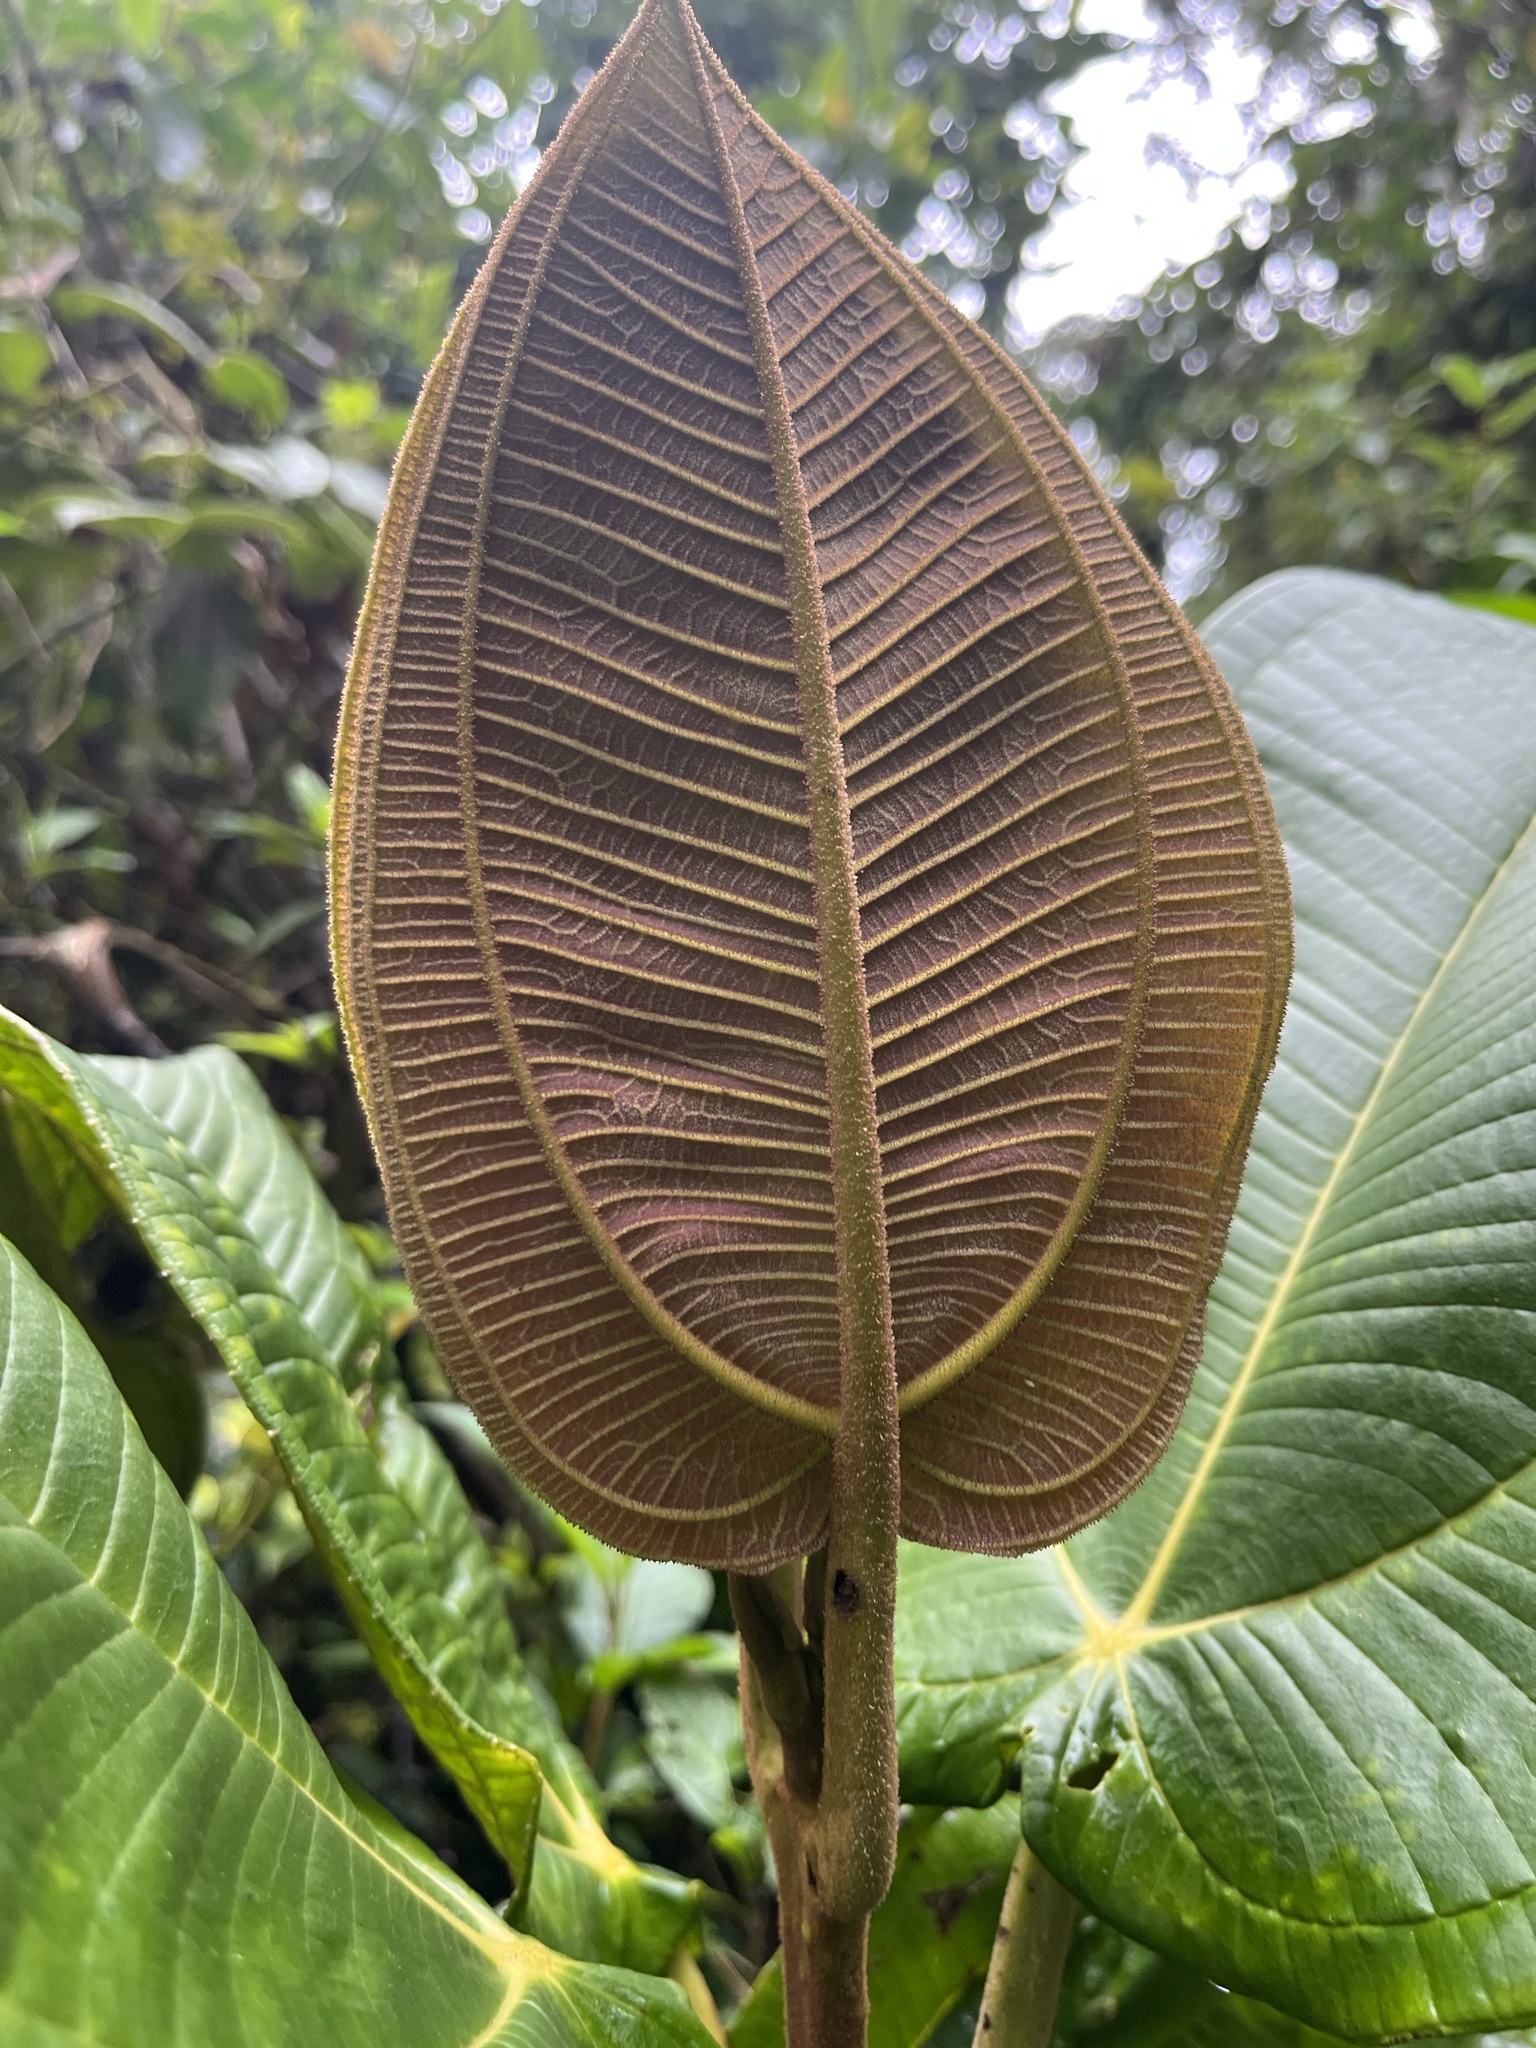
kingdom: Plantae
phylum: Tracheophyta
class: Magnoliopsida
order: Myrtales
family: Melastomataceae
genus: Meriania
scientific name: Meriania macrophylla
